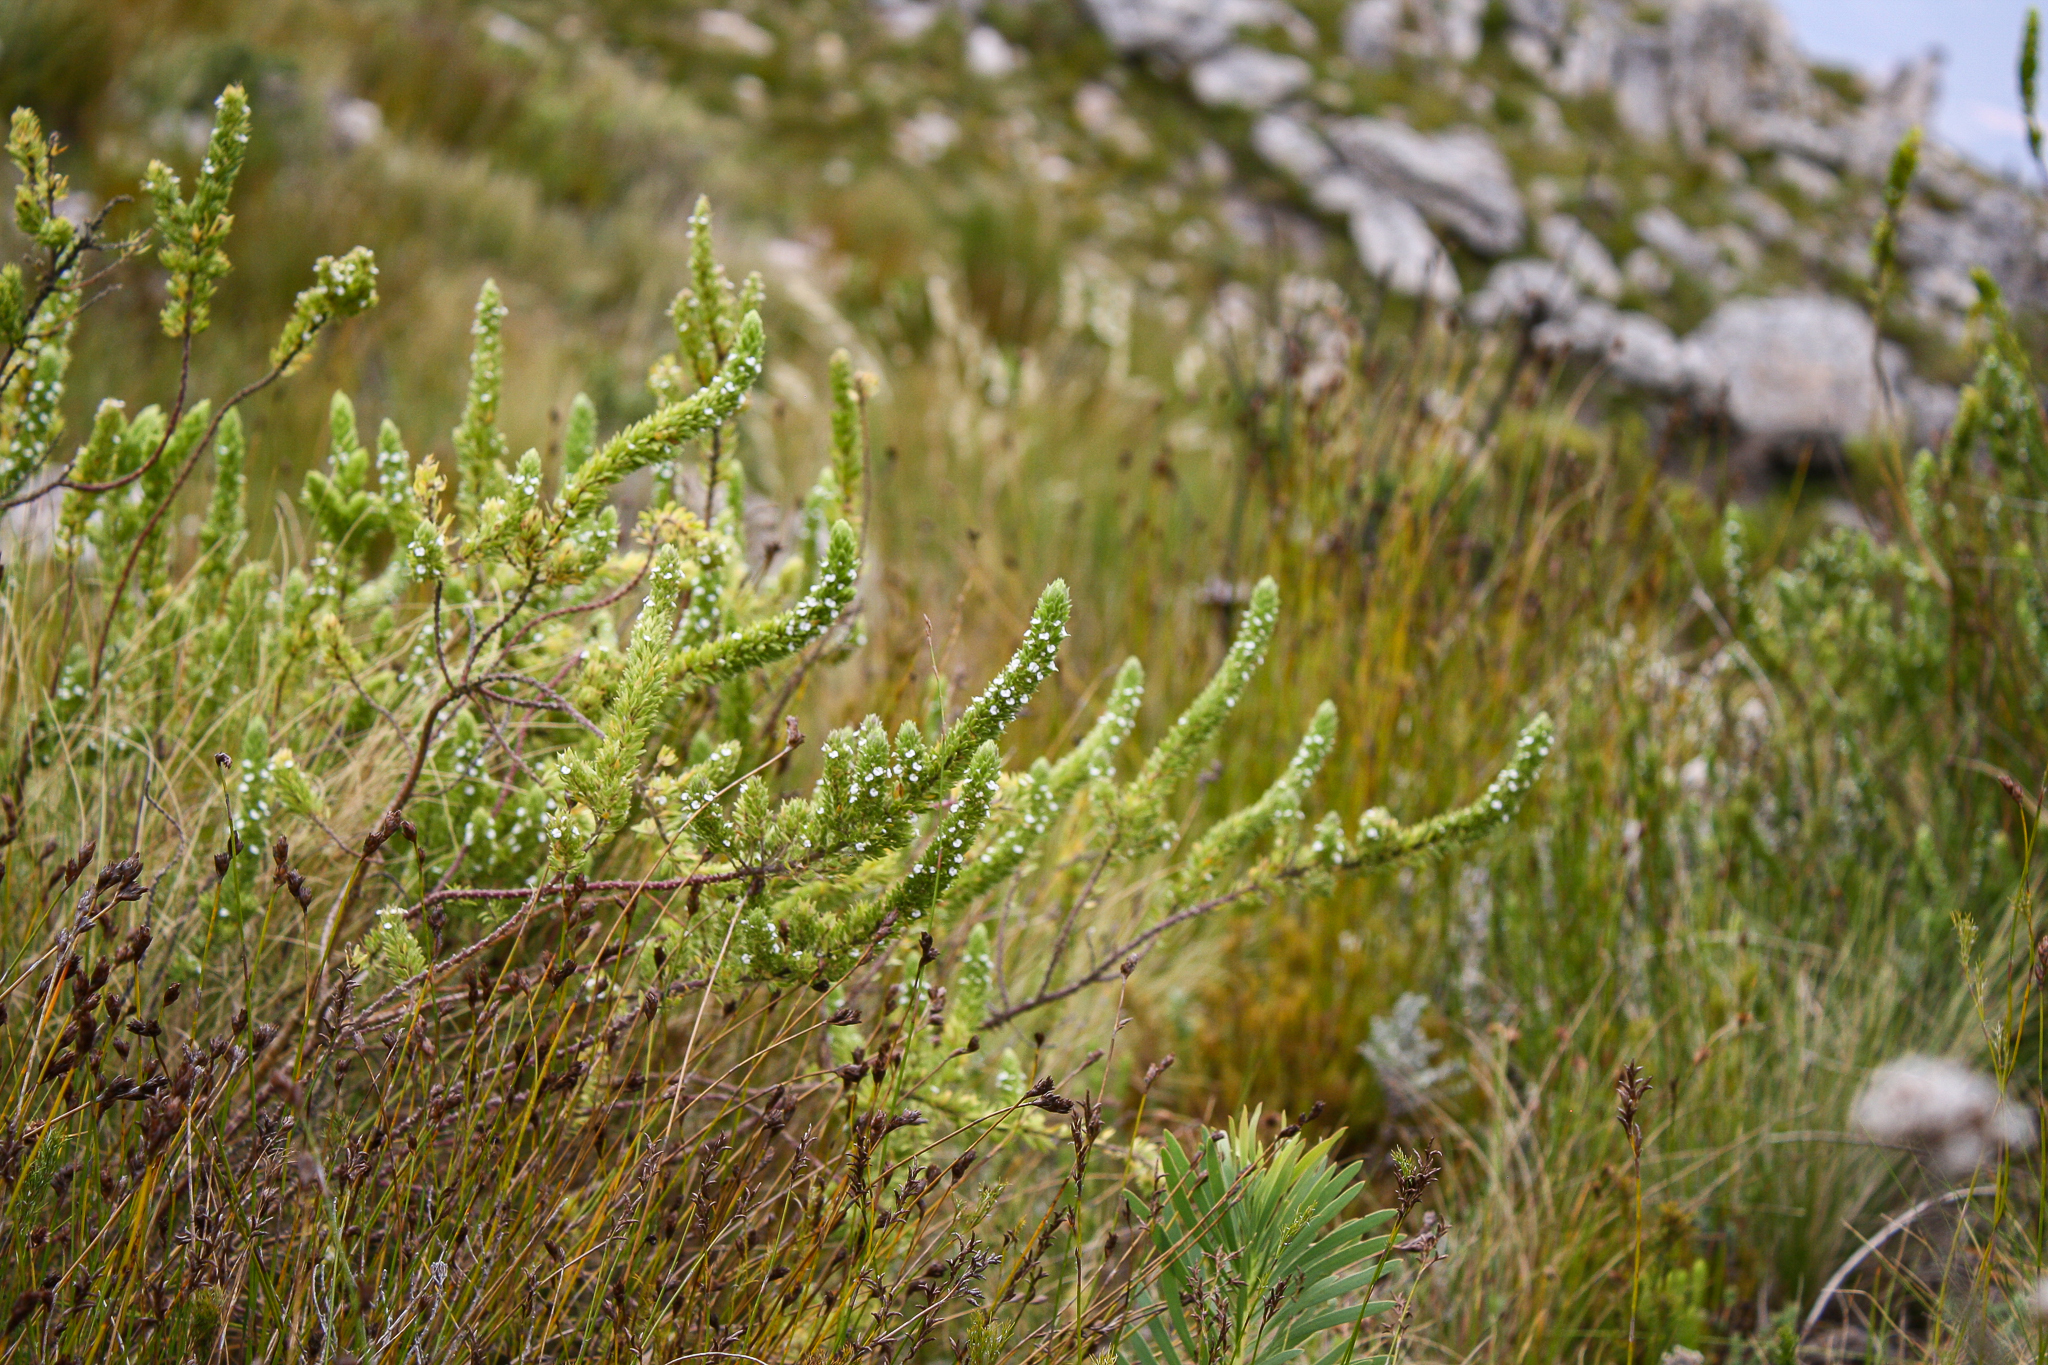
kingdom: Plantae
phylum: Tracheophyta
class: Magnoliopsida
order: Fabales
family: Polygalaceae
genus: Muraltia
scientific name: Muraltia alba
